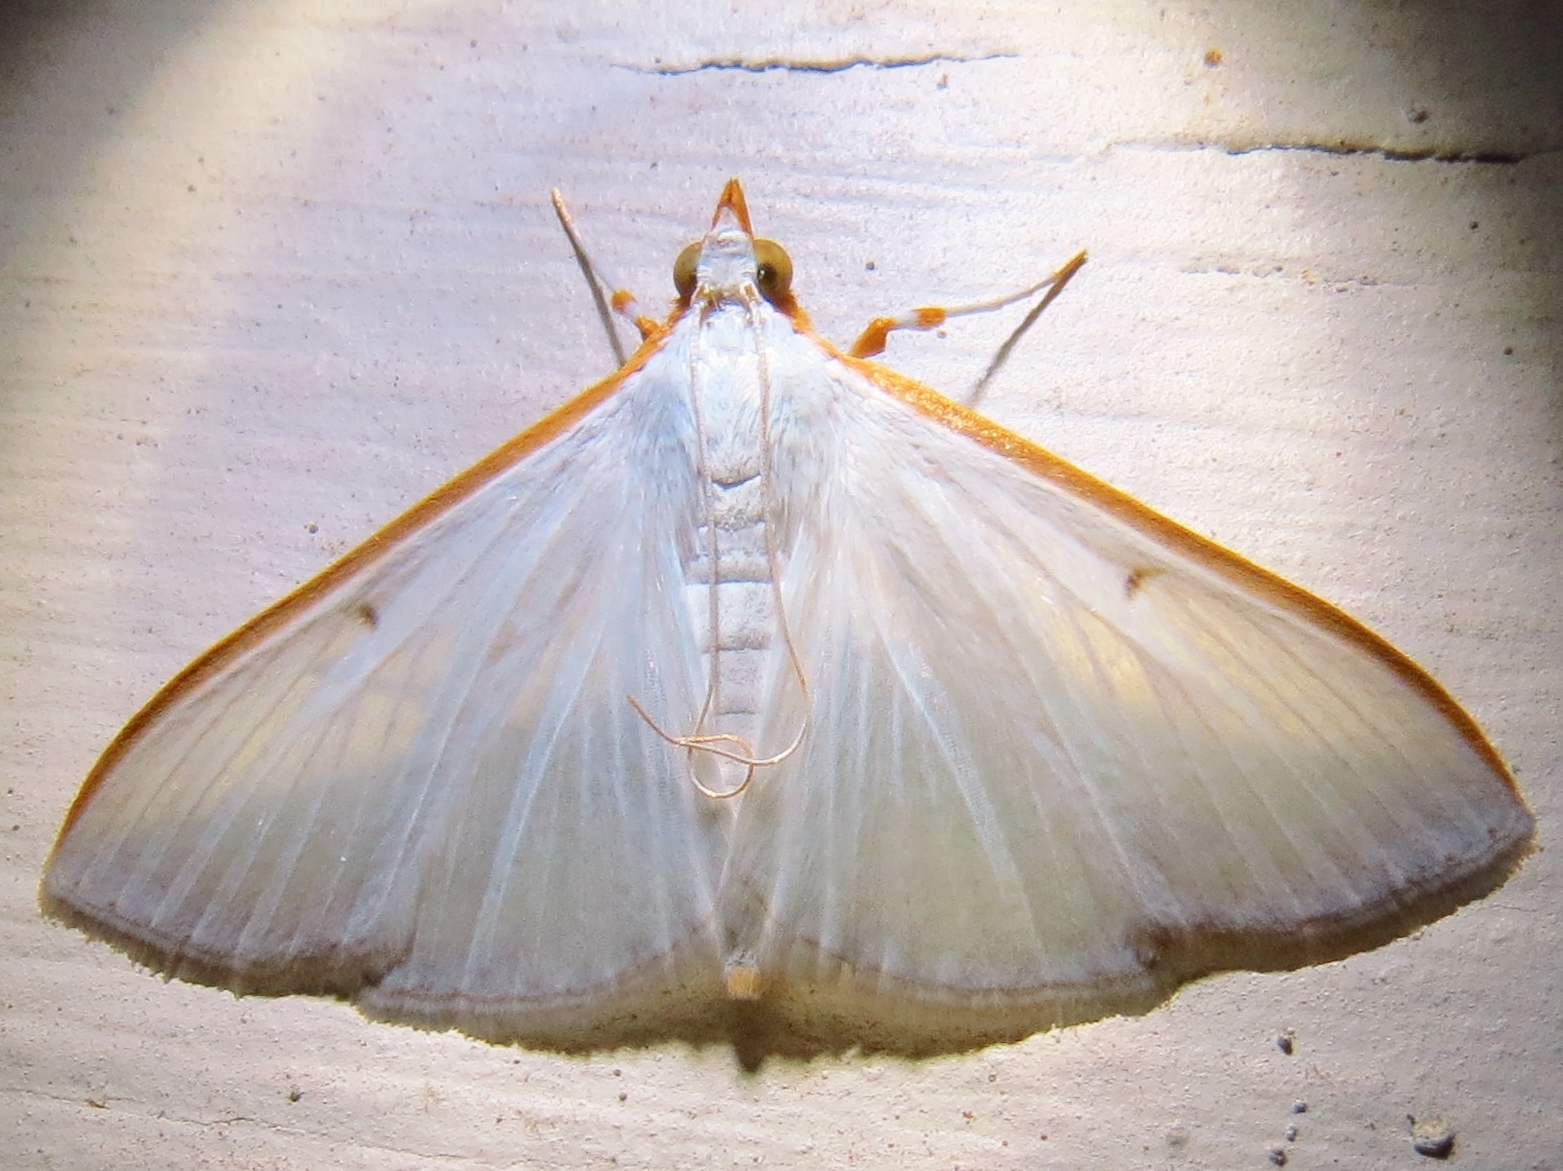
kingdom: Animalia
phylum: Arthropoda
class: Insecta
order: Lepidoptera
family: Crambidae
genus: Diaphania
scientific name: Diaphania costata
